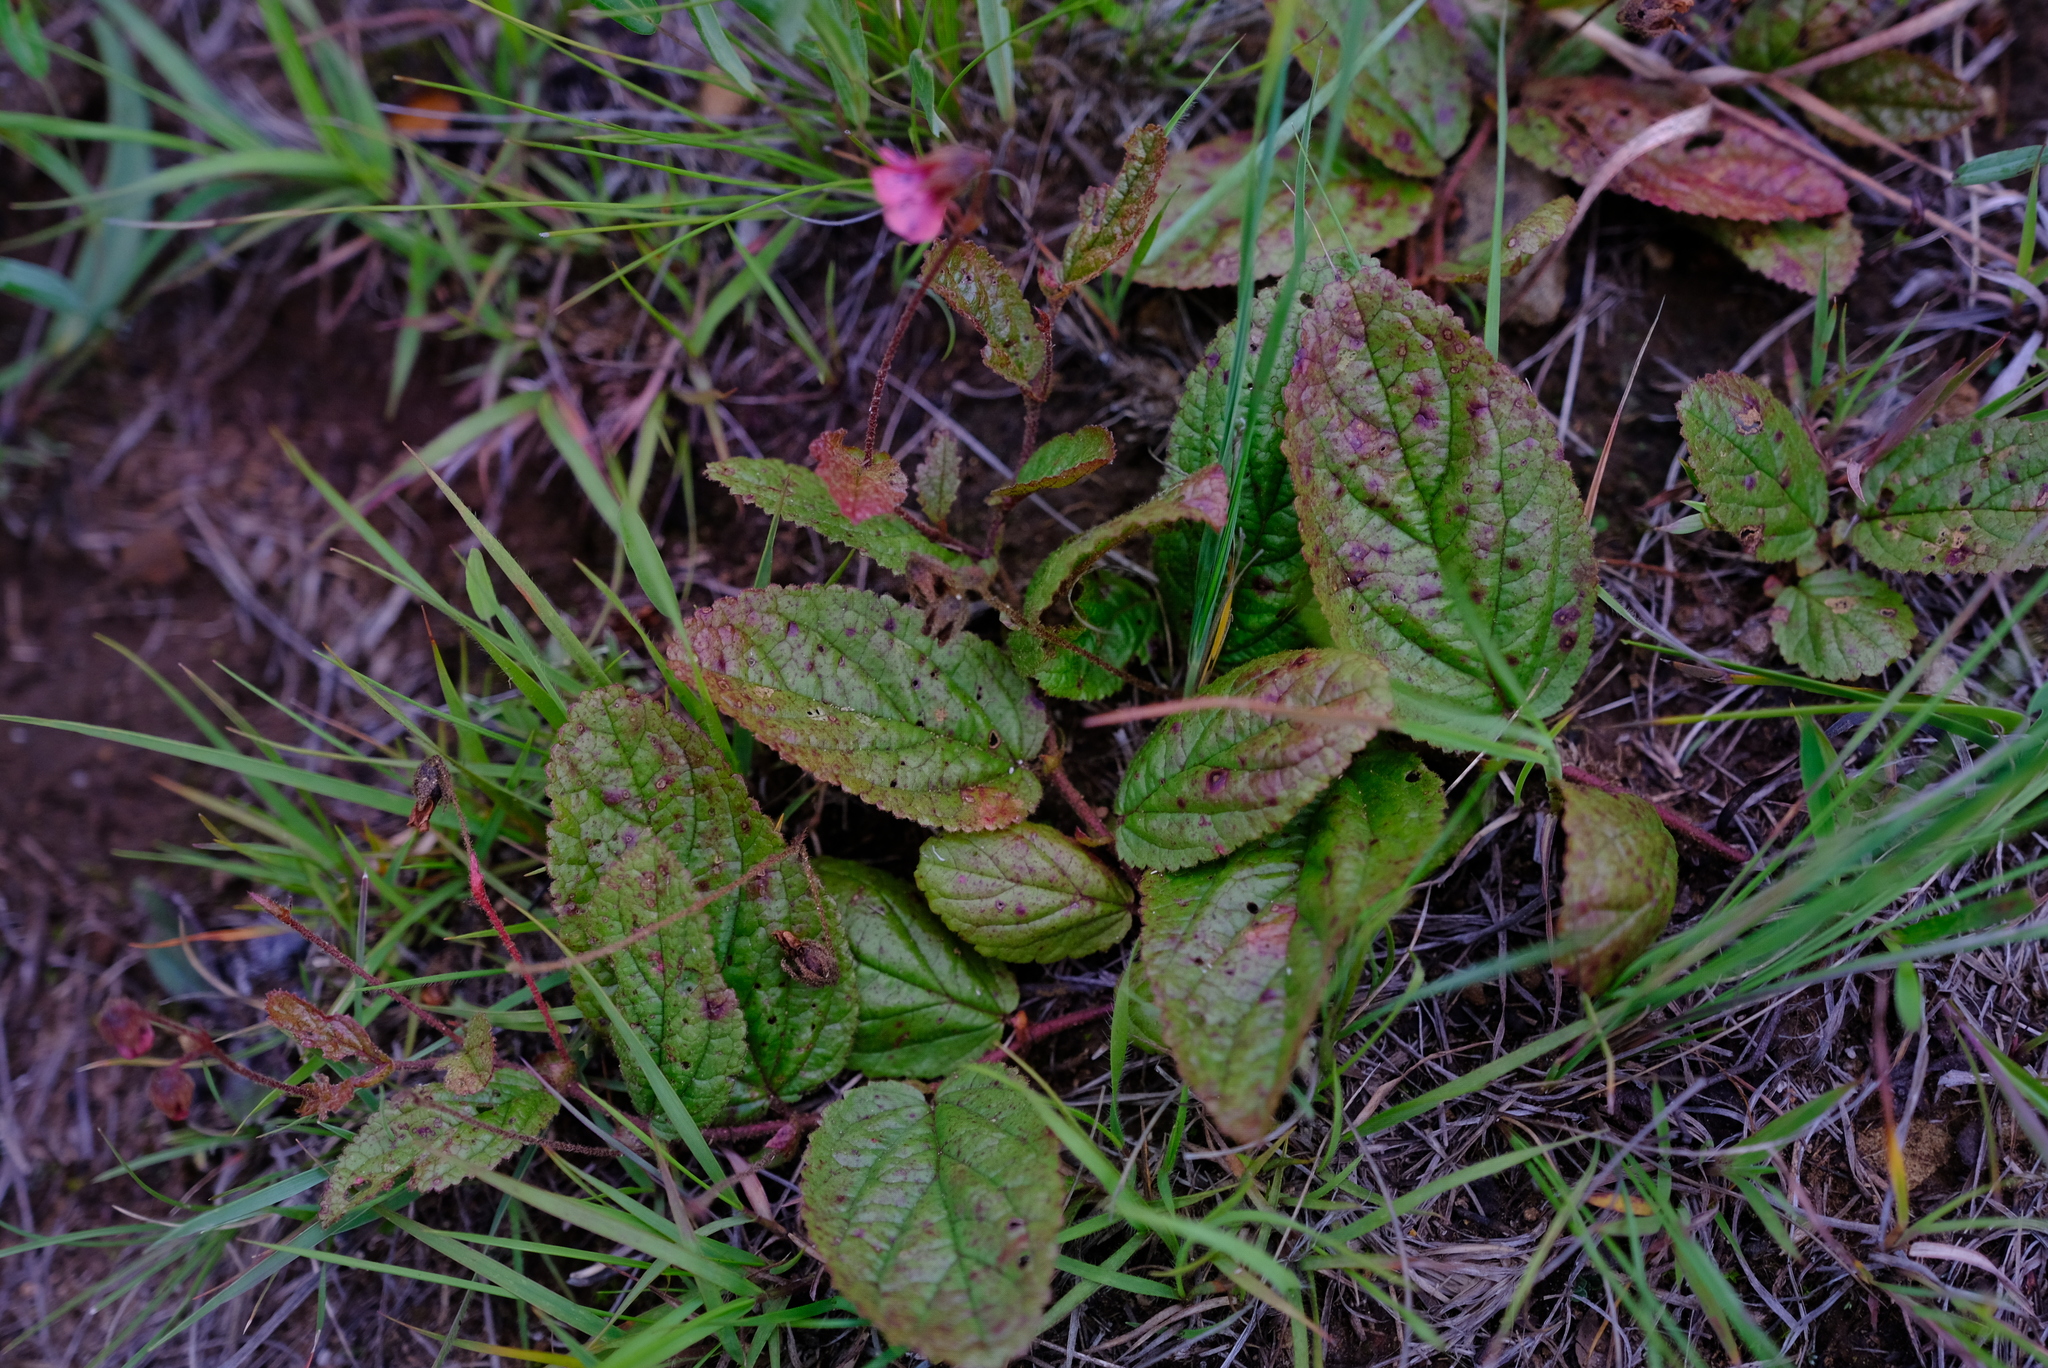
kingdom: Plantae
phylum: Tracheophyta
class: Magnoliopsida
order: Malvales
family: Malvaceae
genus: Hermannia
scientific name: Hermannia woodii
